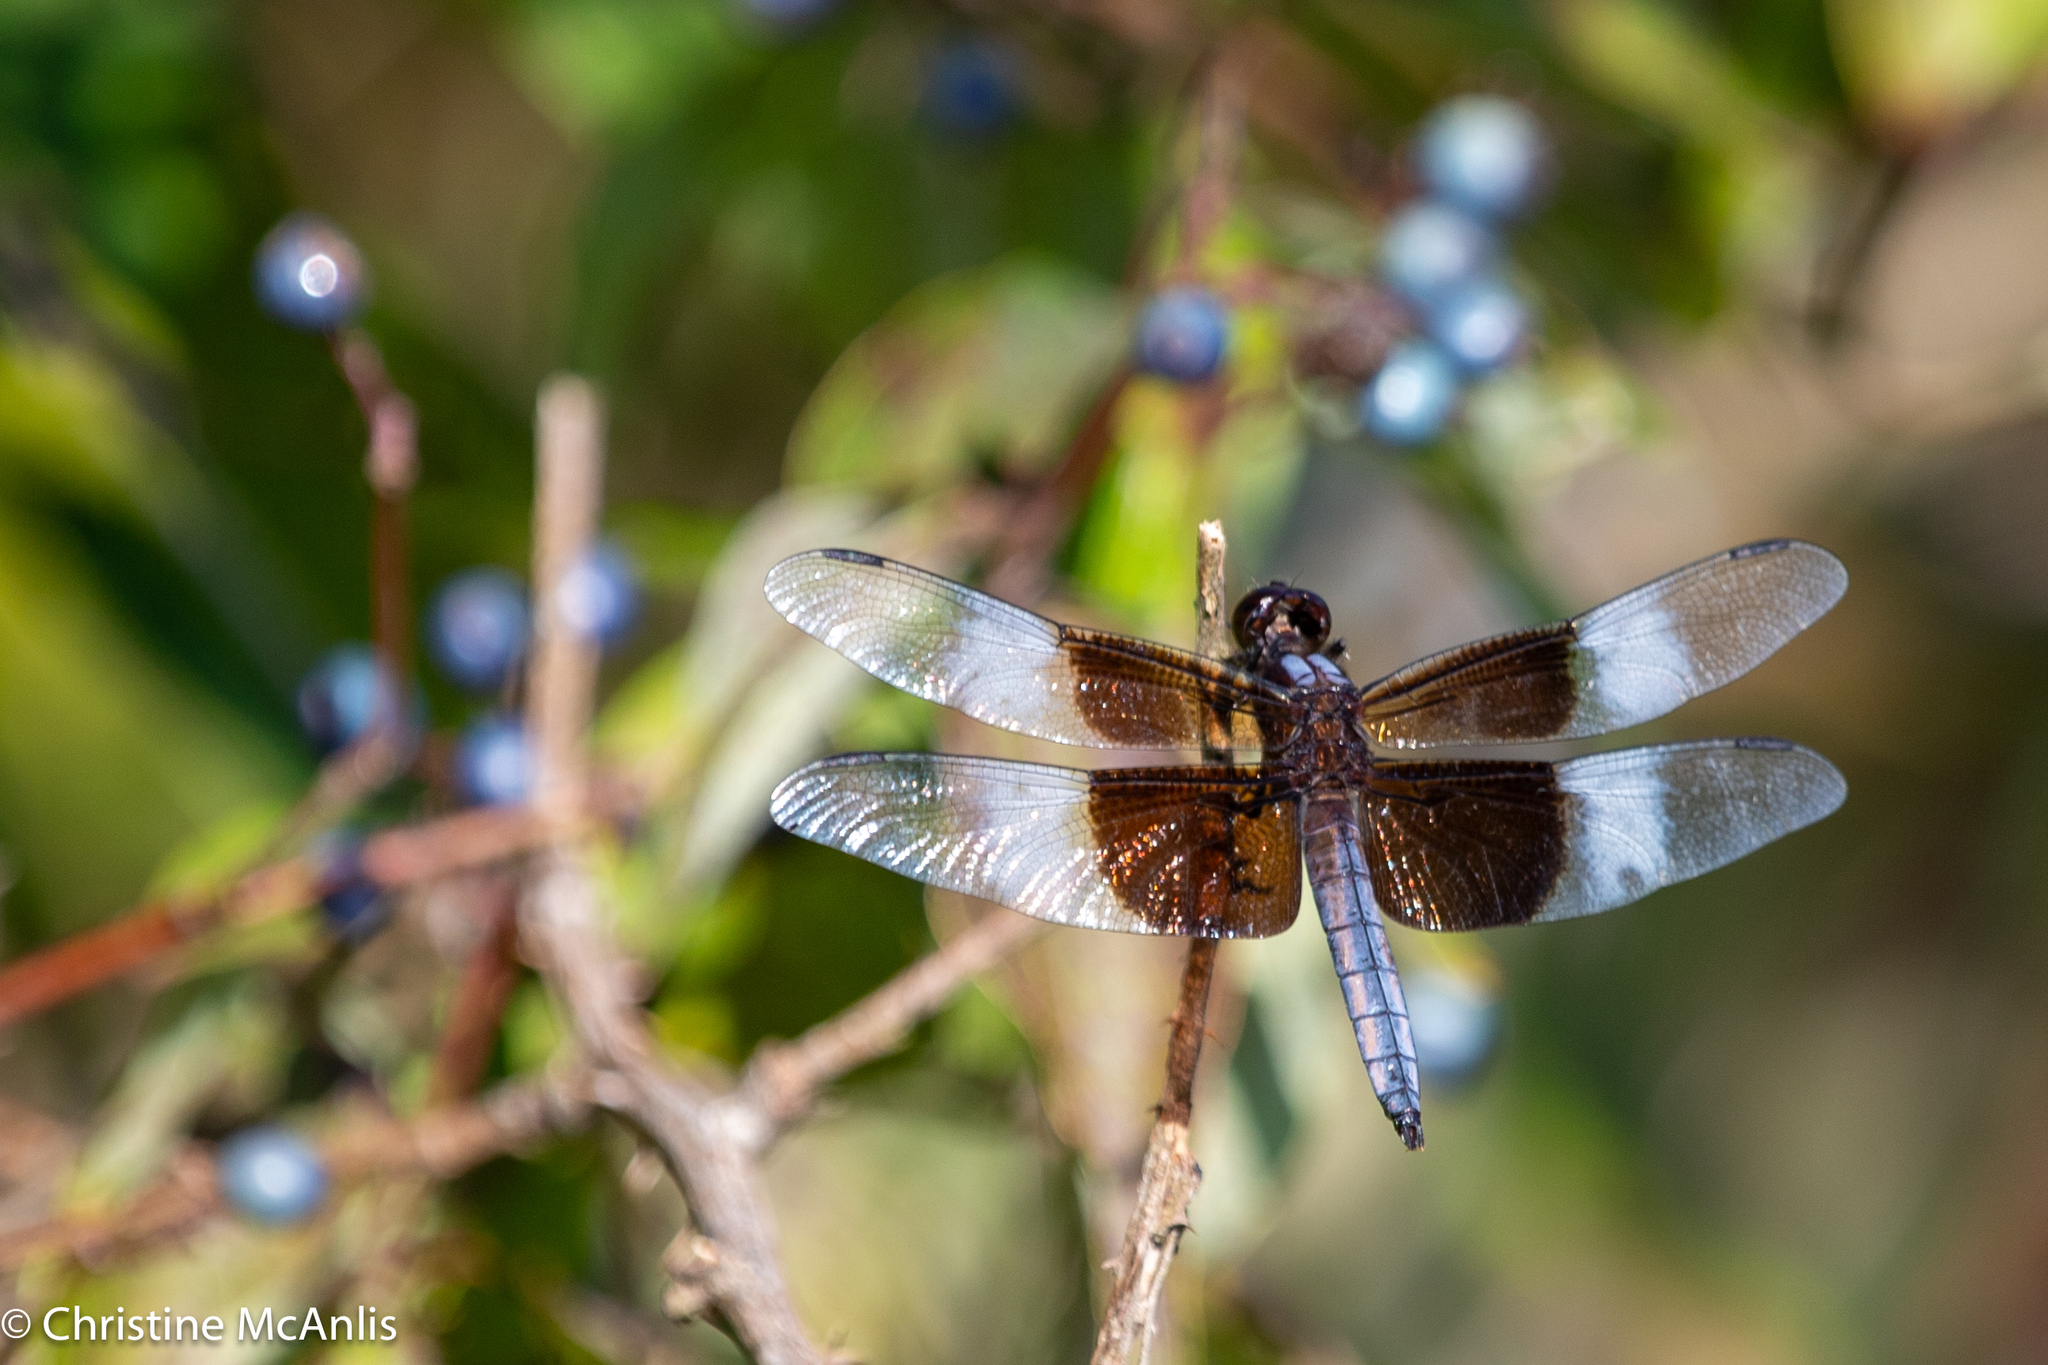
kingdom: Animalia
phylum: Arthropoda
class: Insecta
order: Odonata
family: Libellulidae
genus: Libellula
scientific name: Libellula luctuosa
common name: Widow skimmer
